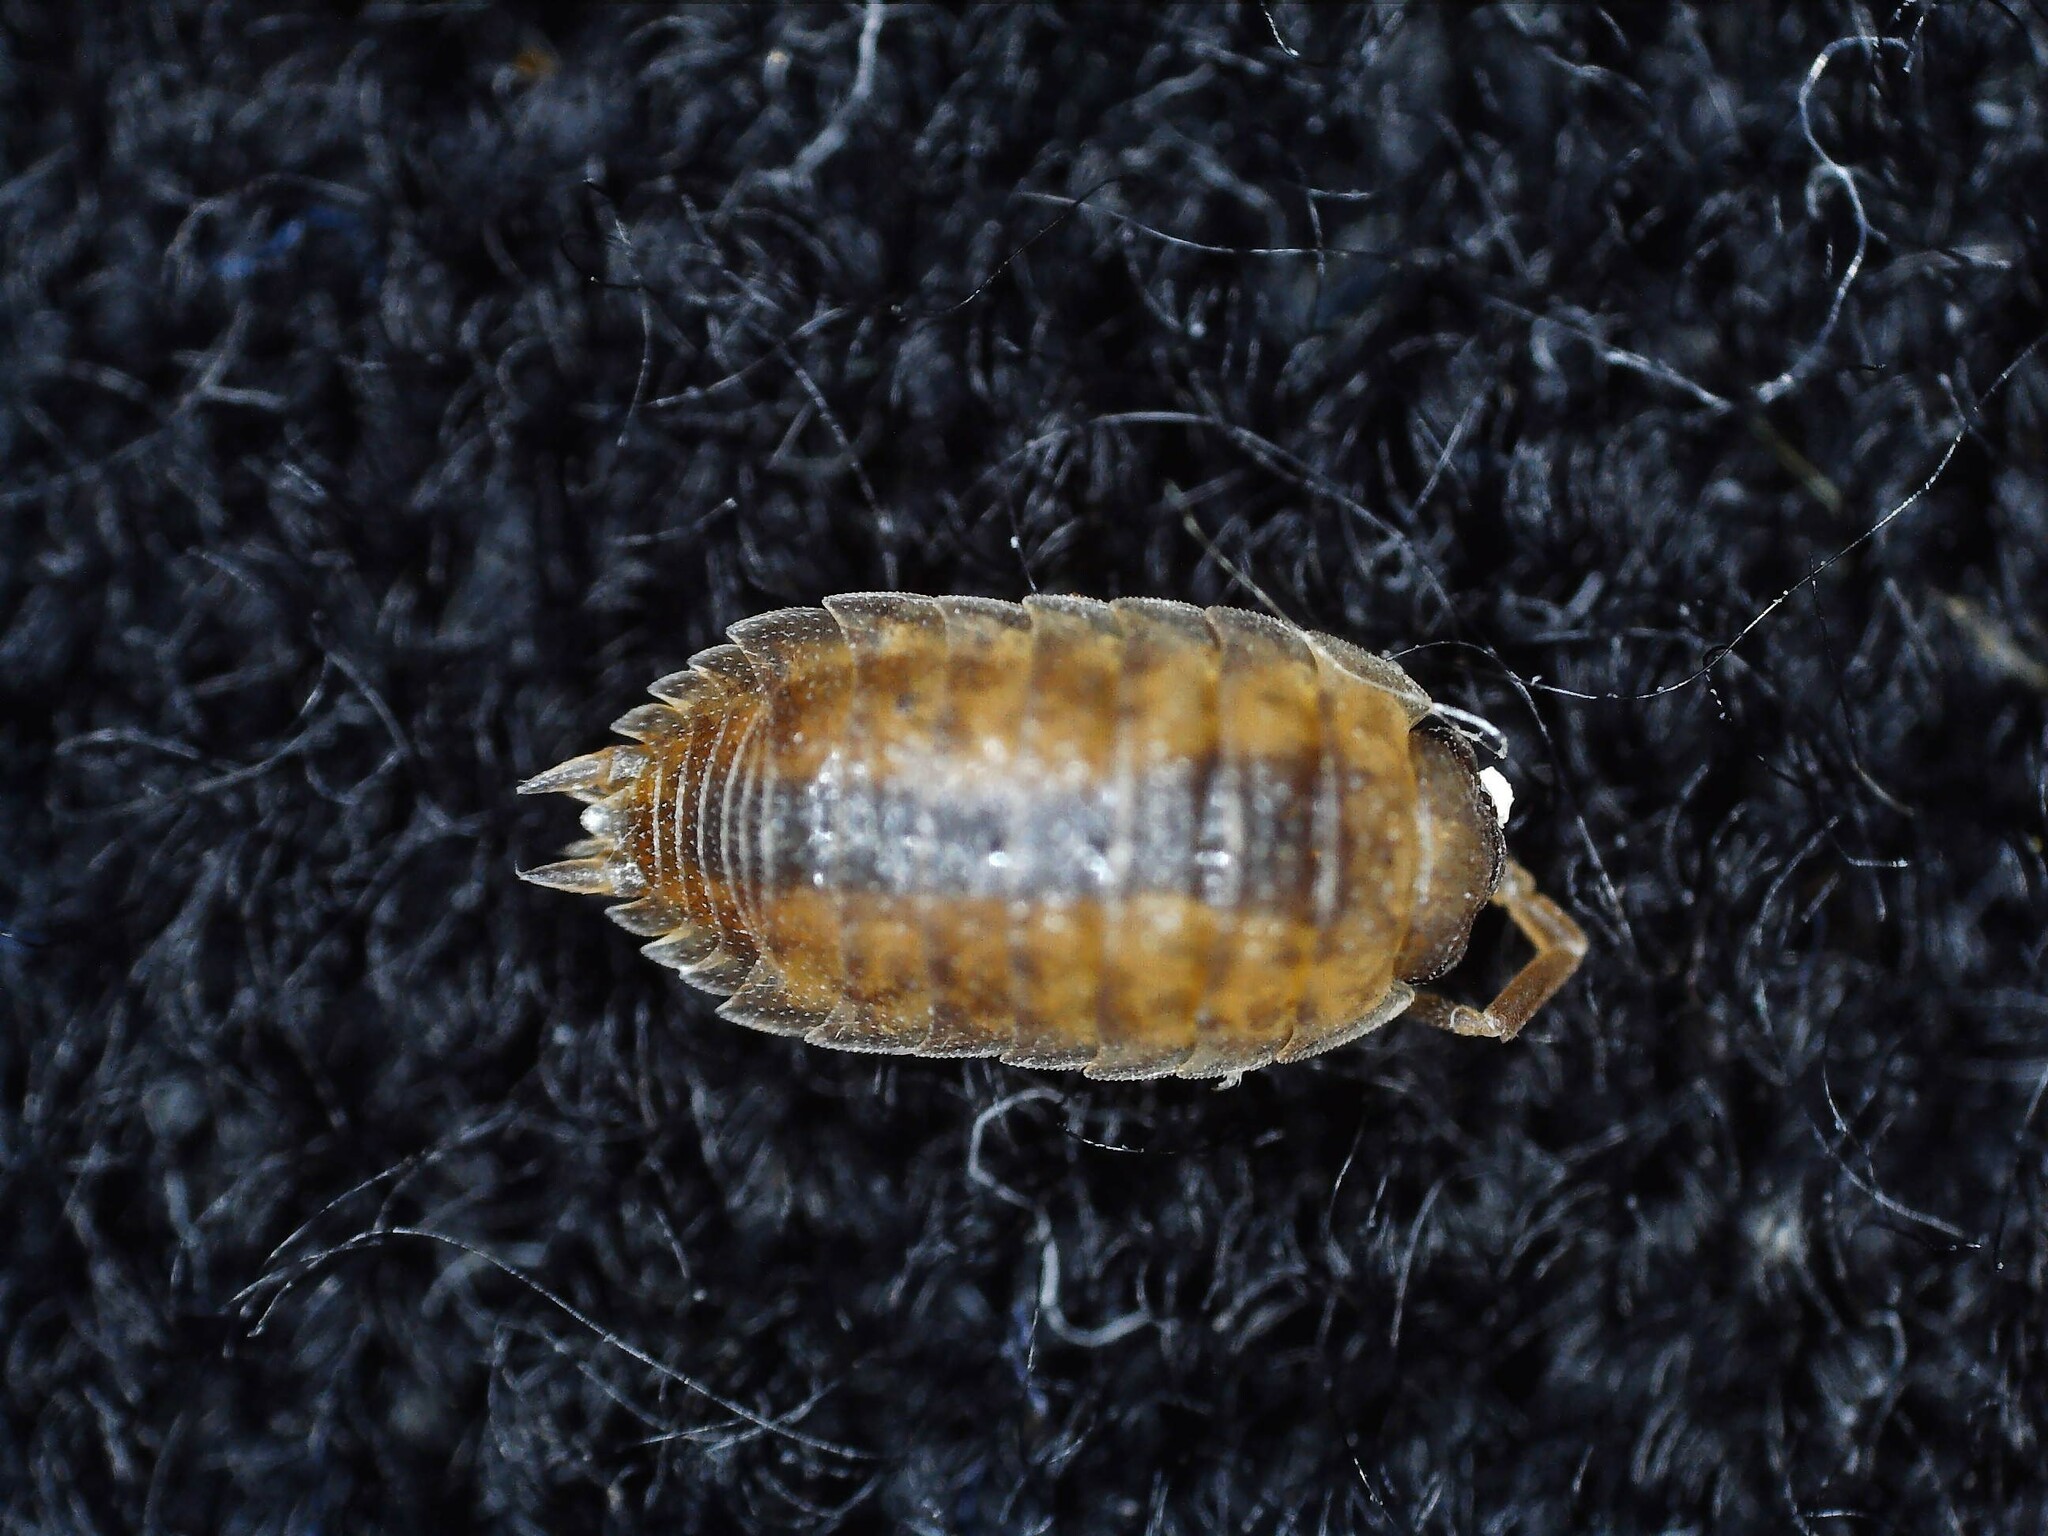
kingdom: Animalia
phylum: Arthropoda
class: Malacostraca
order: Isopoda
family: Porcellionidae
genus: Porcellio
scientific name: Porcellio scaber
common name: Common rough woodlouse
